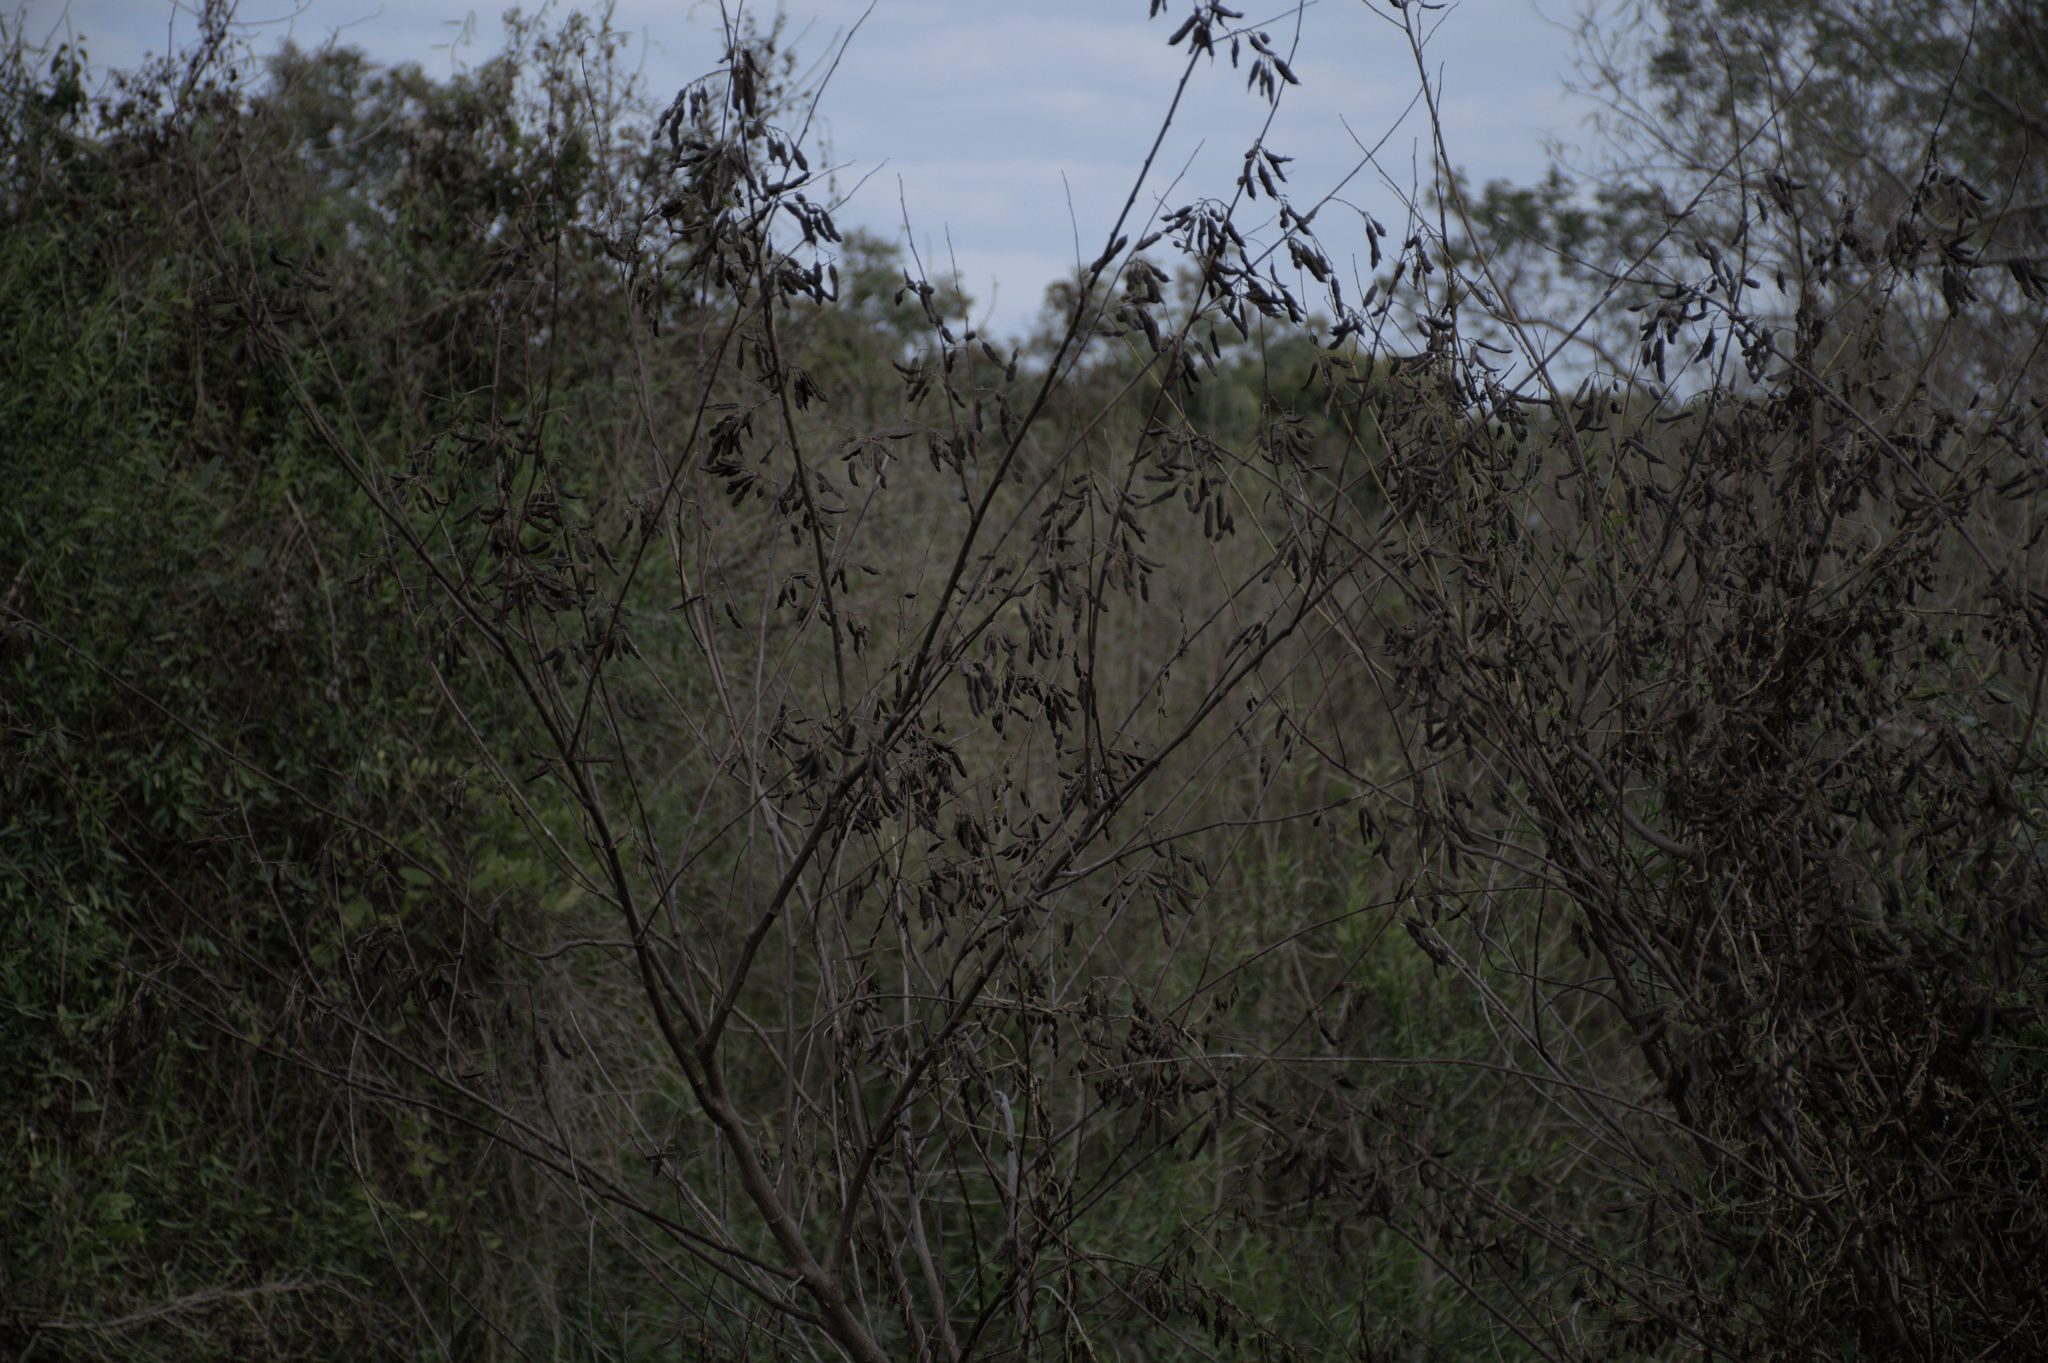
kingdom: Plantae
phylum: Tracheophyta
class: Magnoliopsida
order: Fabales
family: Fabaceae
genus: Sesbania
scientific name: Sesbania virgata
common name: Wand riverhemp
